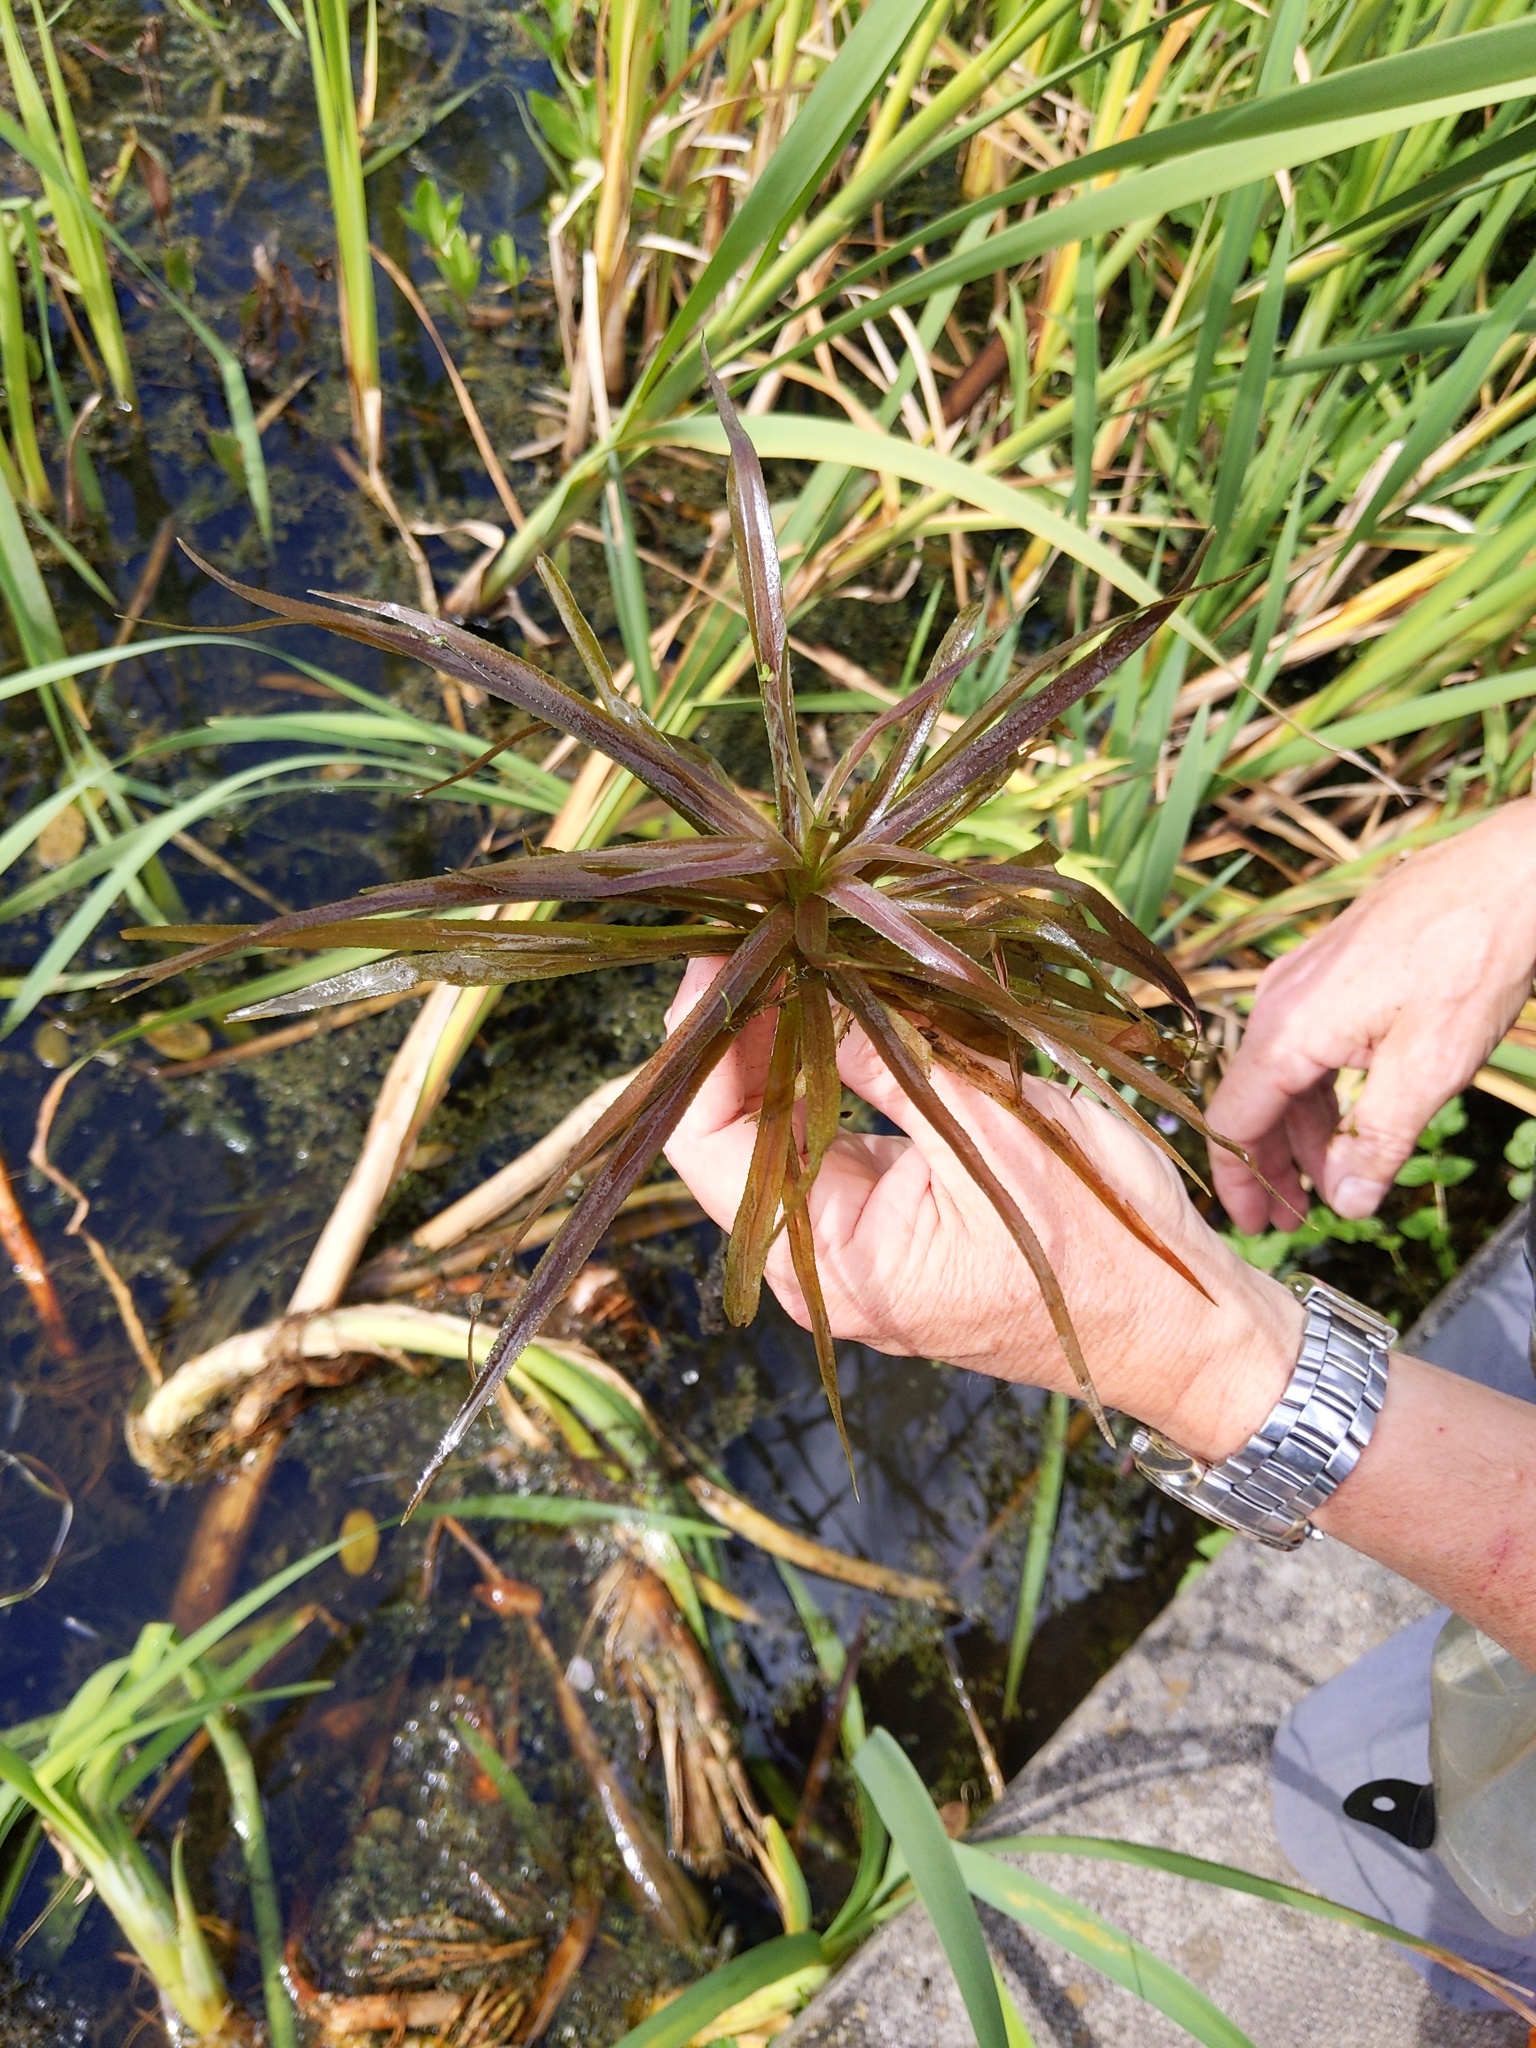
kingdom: Plantae
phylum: Tracheophyta
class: Liliopsida
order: Alismatales
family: Hydrocharitaceae
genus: Stratiotes
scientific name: Stratiotes aloides
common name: Water-soldier
